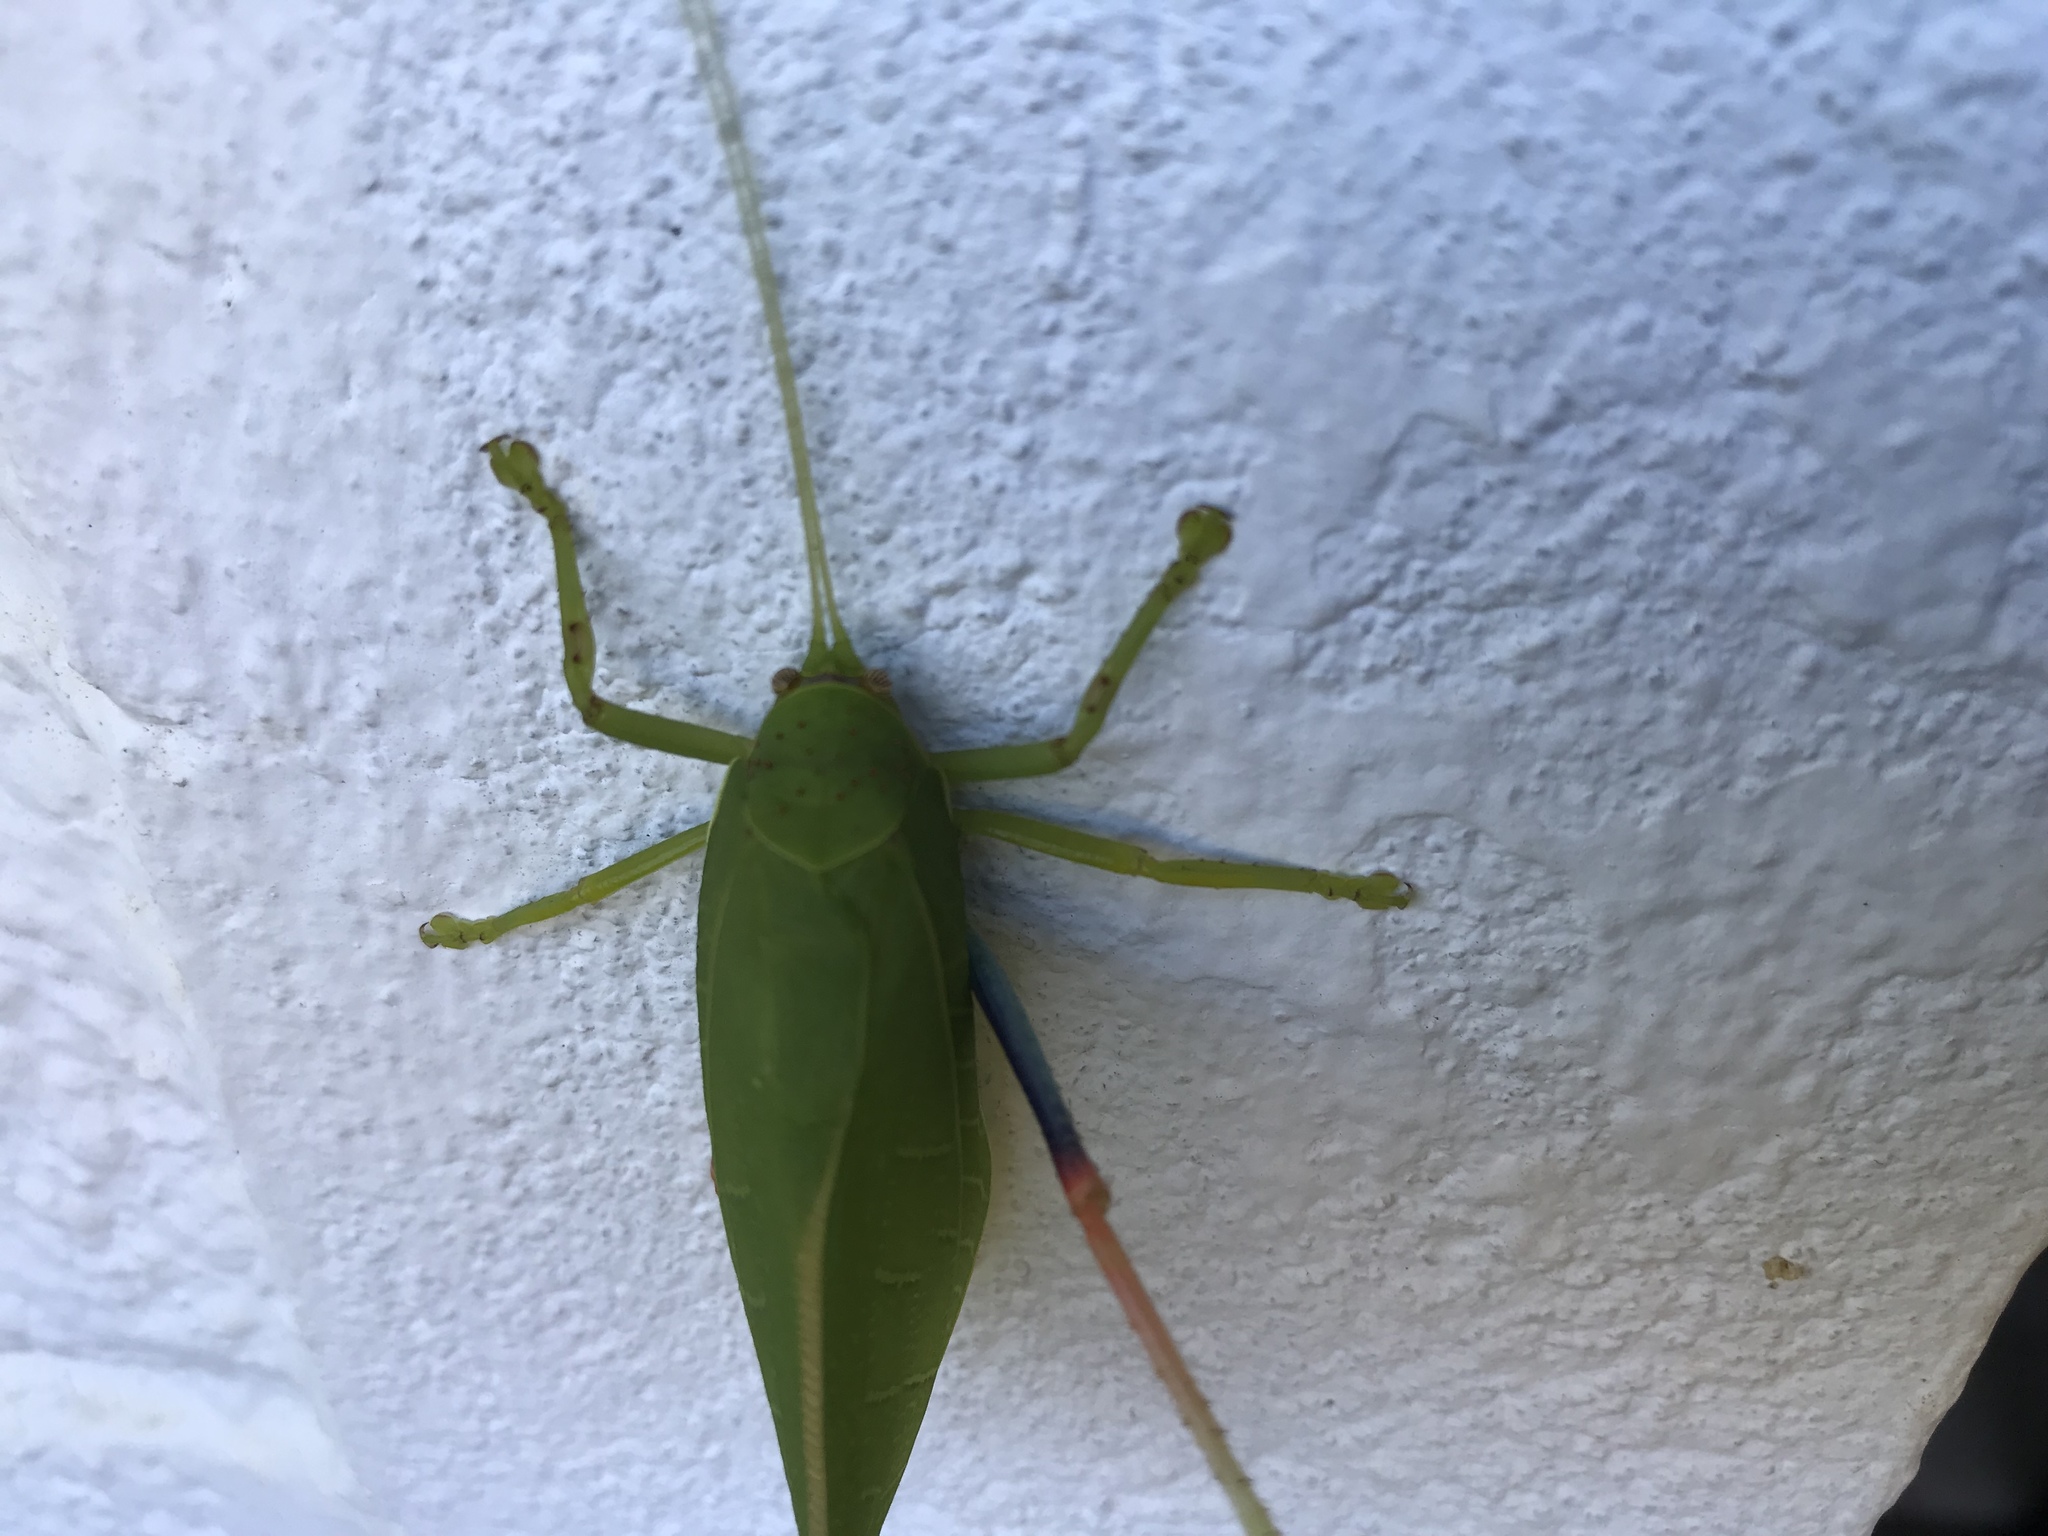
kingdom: Animalia
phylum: Arthropoda
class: Insecta
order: Orthoptera
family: Tettigoniidae
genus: Zabalius
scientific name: Zabalius ophthalmicus
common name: Blue-legged sylvan katydid
